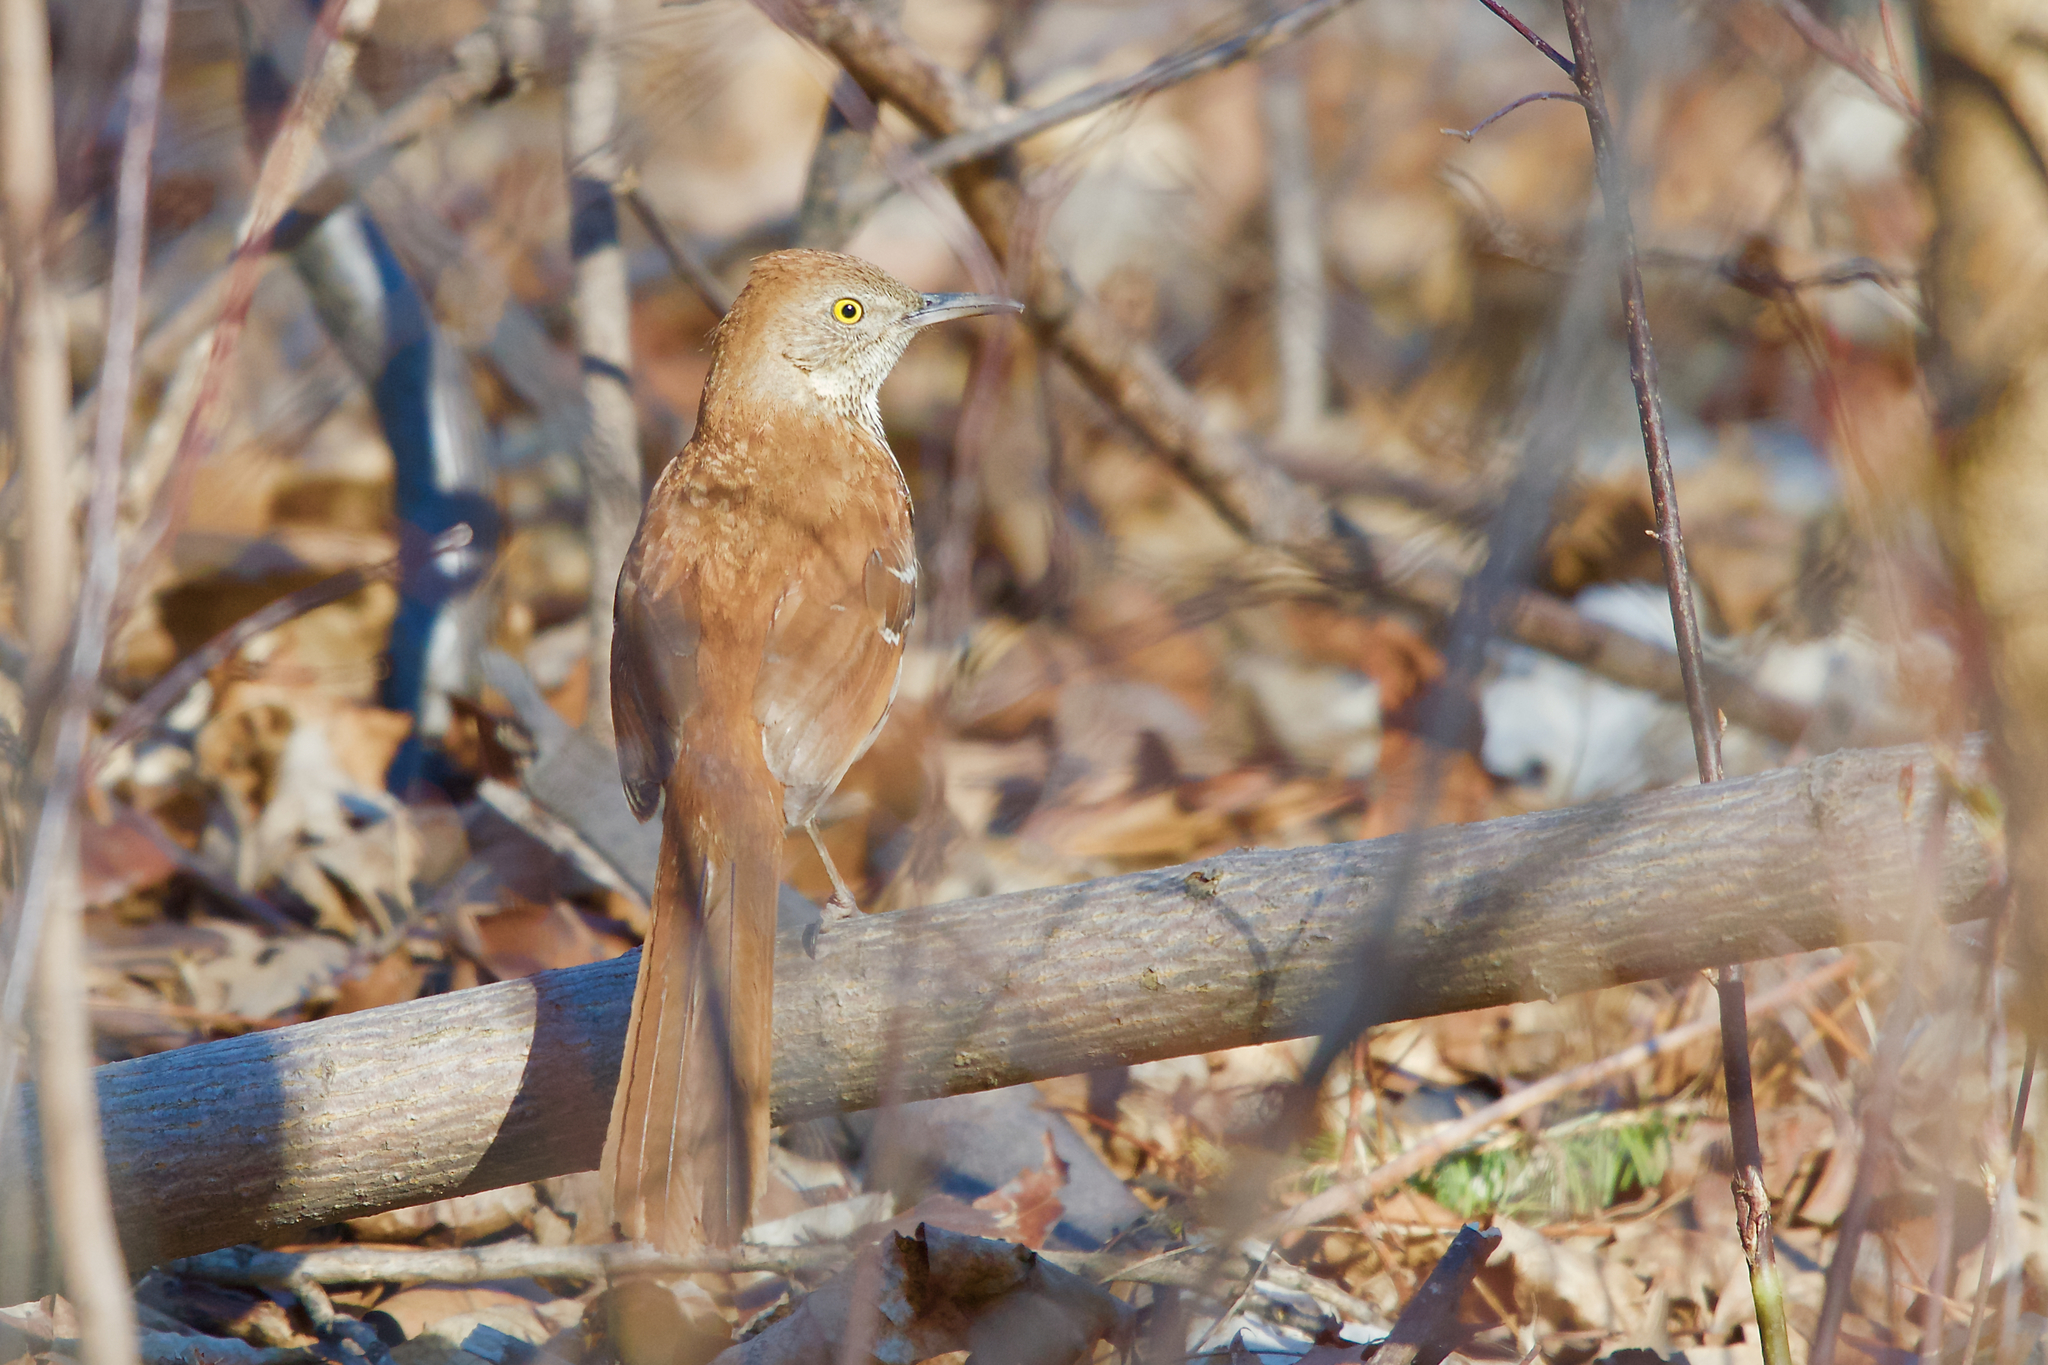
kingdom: Animalia
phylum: Chordata
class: Aves
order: Passeriformes
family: Mimidae
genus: Toxostoma
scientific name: Toxostoma rufum
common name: Brown thrasher
